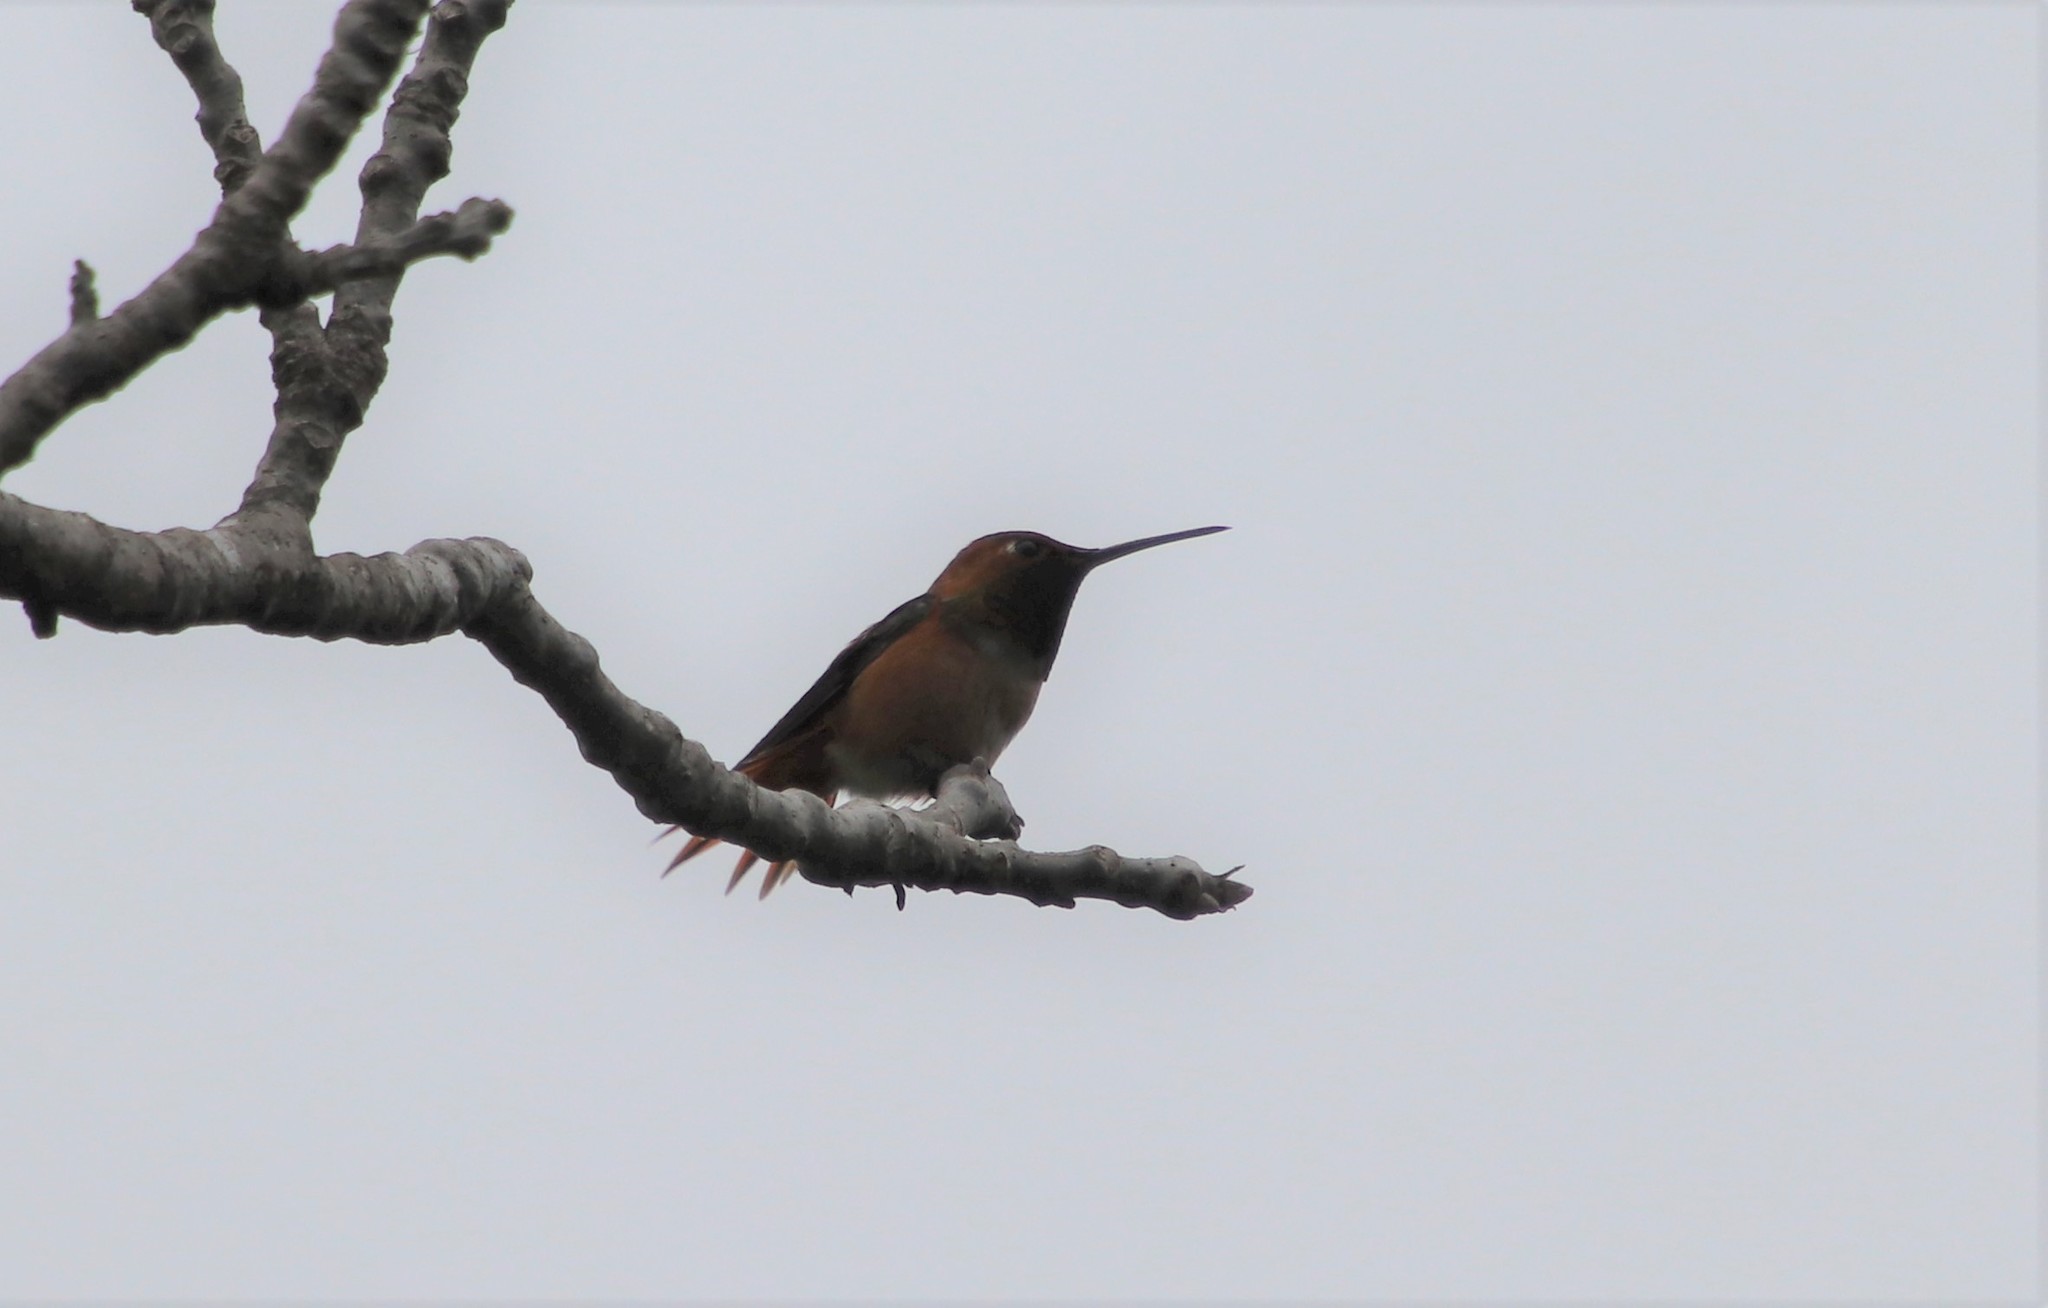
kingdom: Animalia
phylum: Chordata
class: Aves
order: Apodiformes
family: Trochilidae
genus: Selasphorus
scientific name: Selasphorus sasin
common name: Allen's hummingbird
